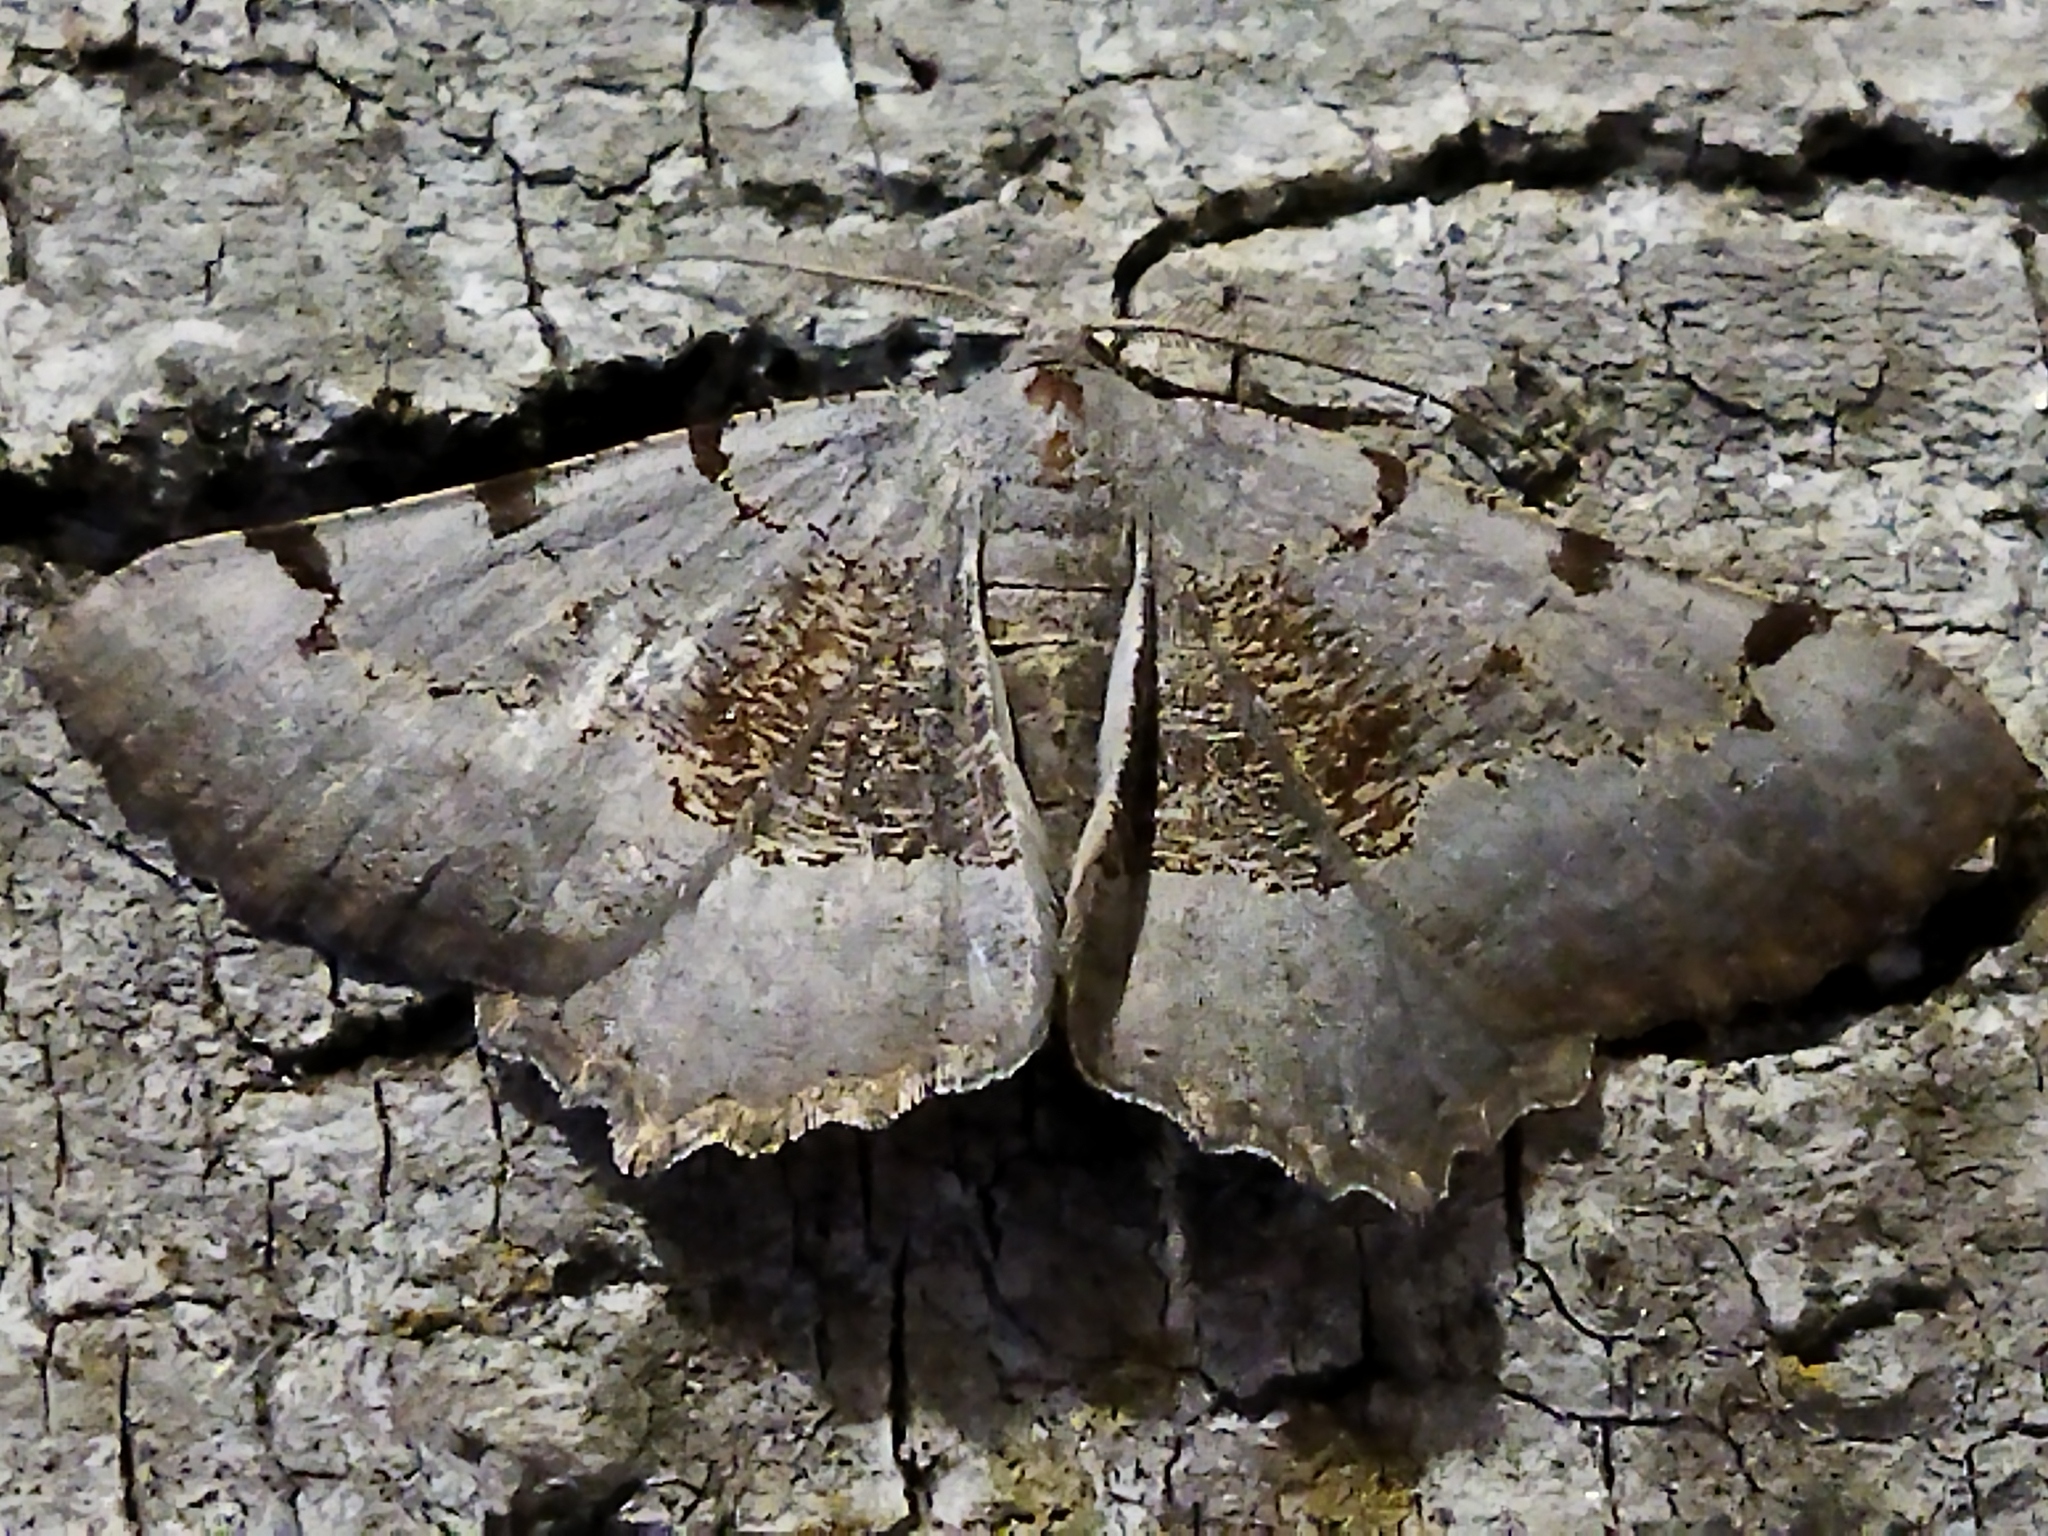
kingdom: Animalia
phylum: Arthropoda
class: Insecta
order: Lepidoptera
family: Geometridae
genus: Neognopharmia
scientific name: Neognopharmia stevenaria
